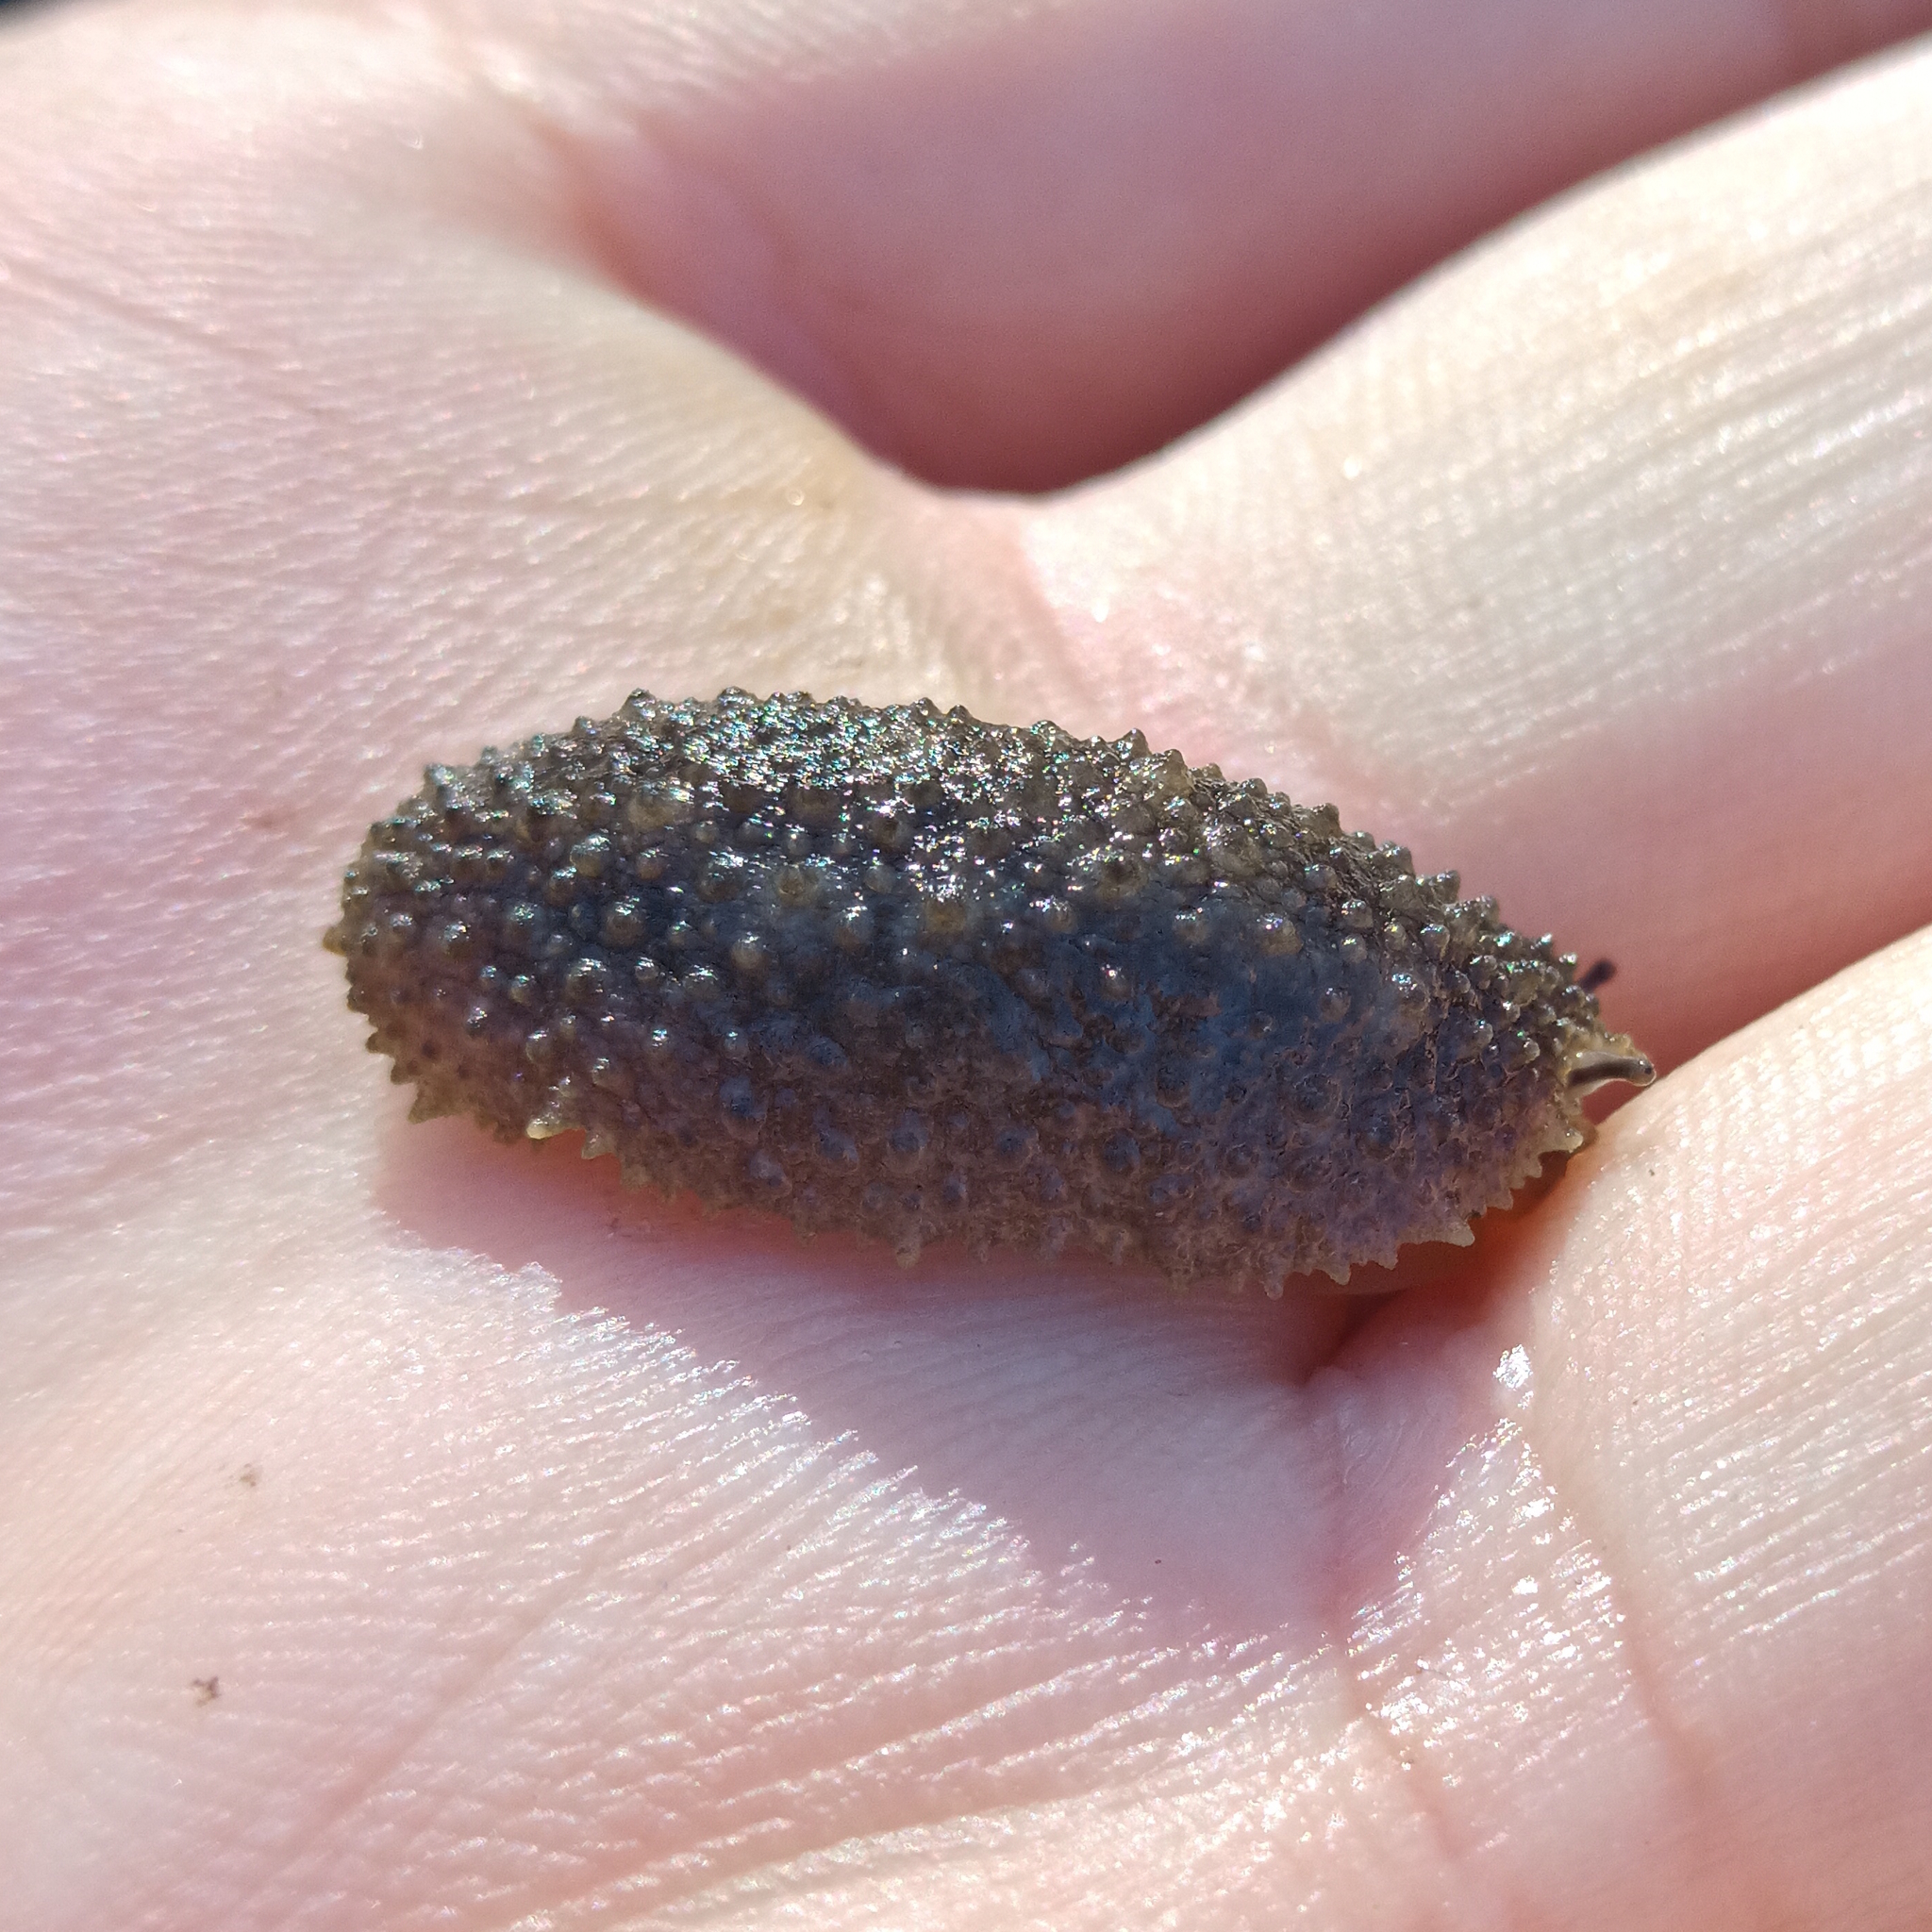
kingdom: Animalia
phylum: Mollusca
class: Gastropoda
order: Systellommatophora
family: Onchidiidae
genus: Onchidella
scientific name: Onchidella incisa
